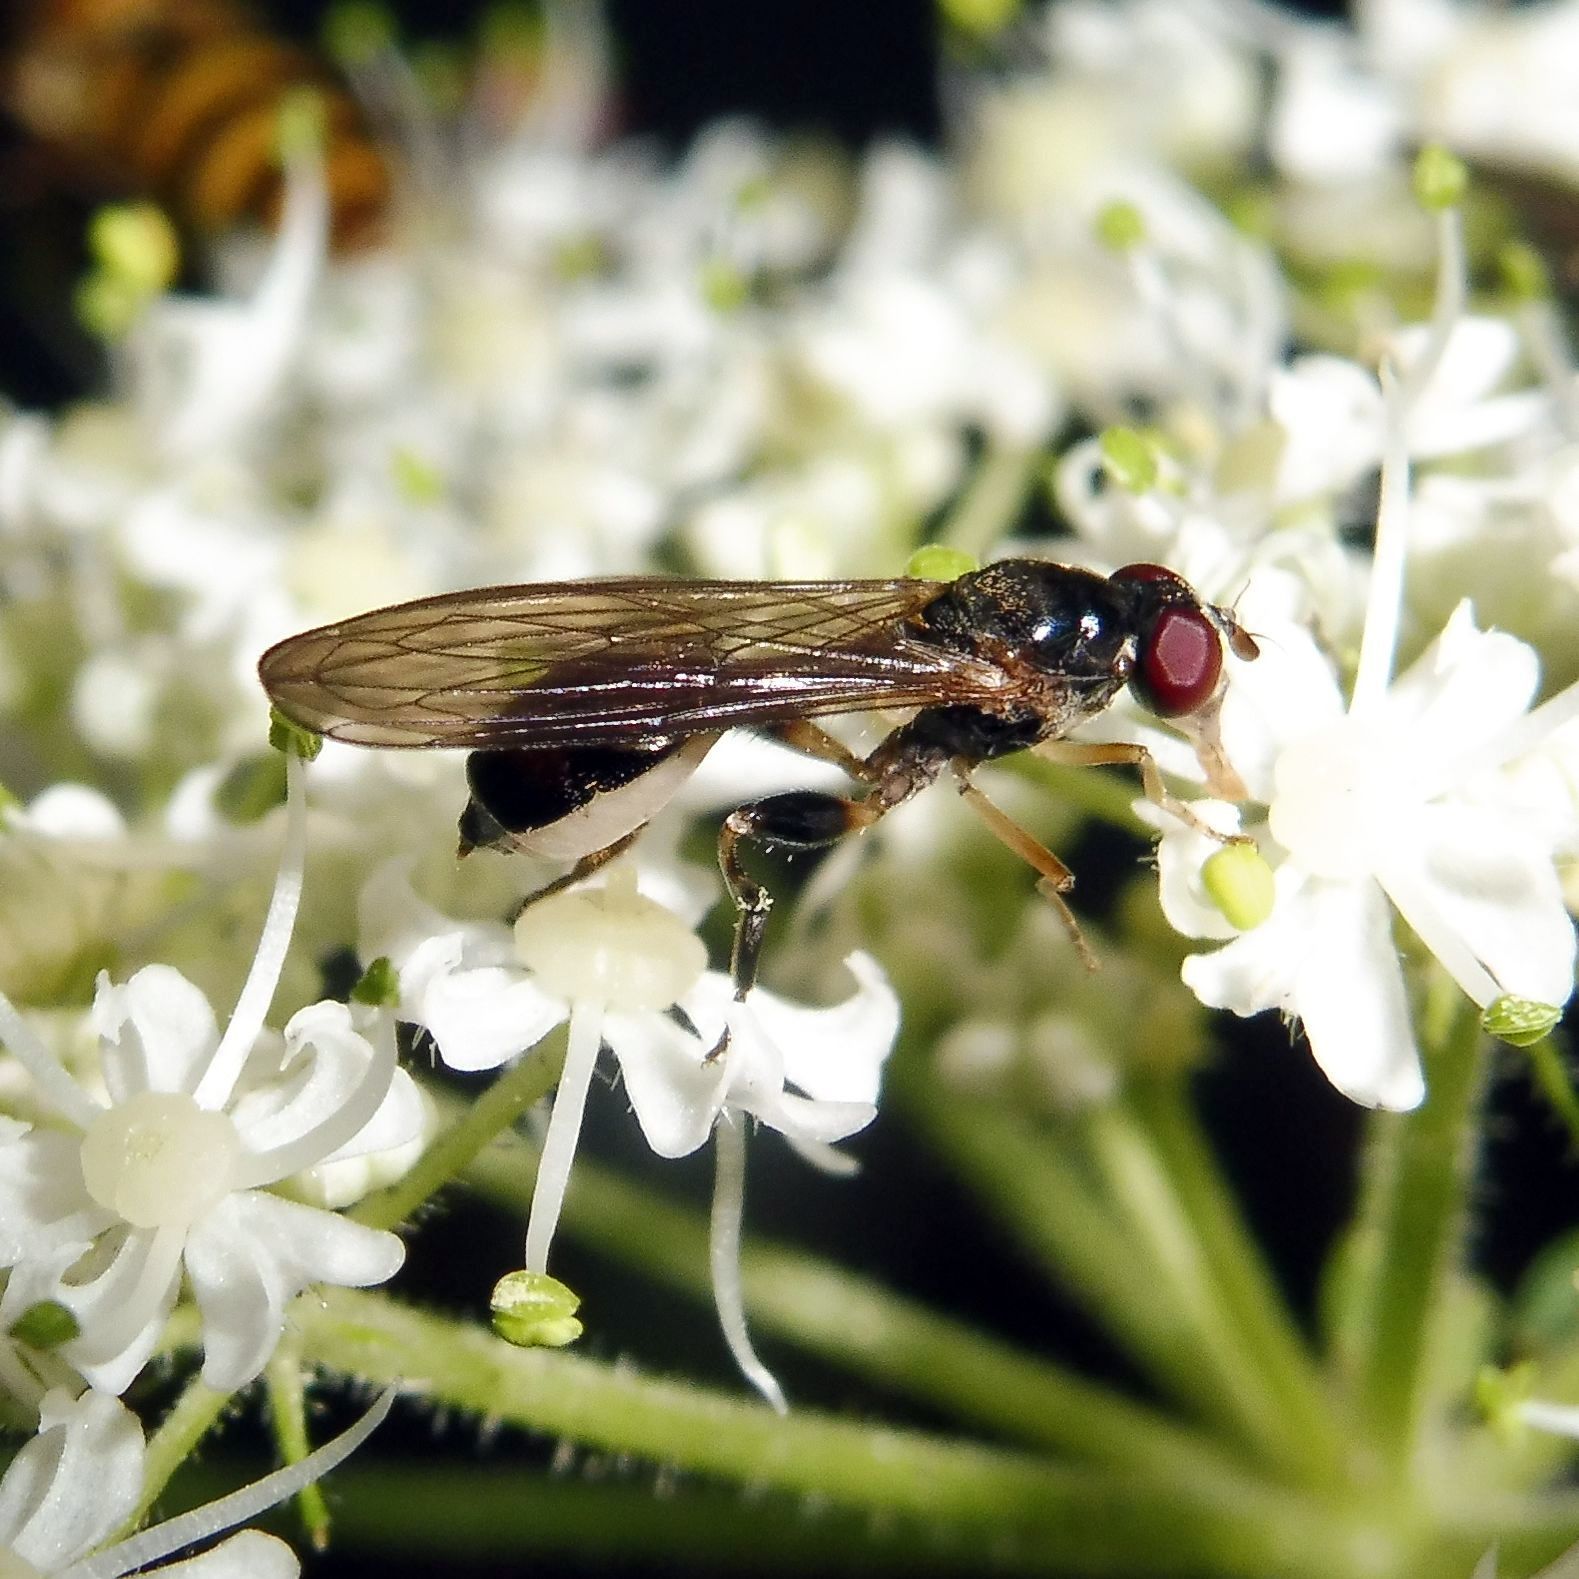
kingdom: Animalia
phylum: Arthropoda
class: Insecta
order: Diptera
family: Syrphidae
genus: Sphegina
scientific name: Sphegina
